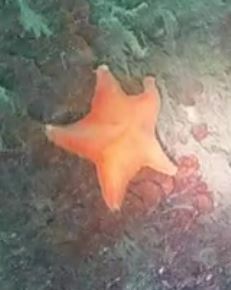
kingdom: Animalia
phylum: Echinodermata
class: Asteroidea
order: Valvatida
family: Asterinidae
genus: Patiria
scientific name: Patiria miniata
